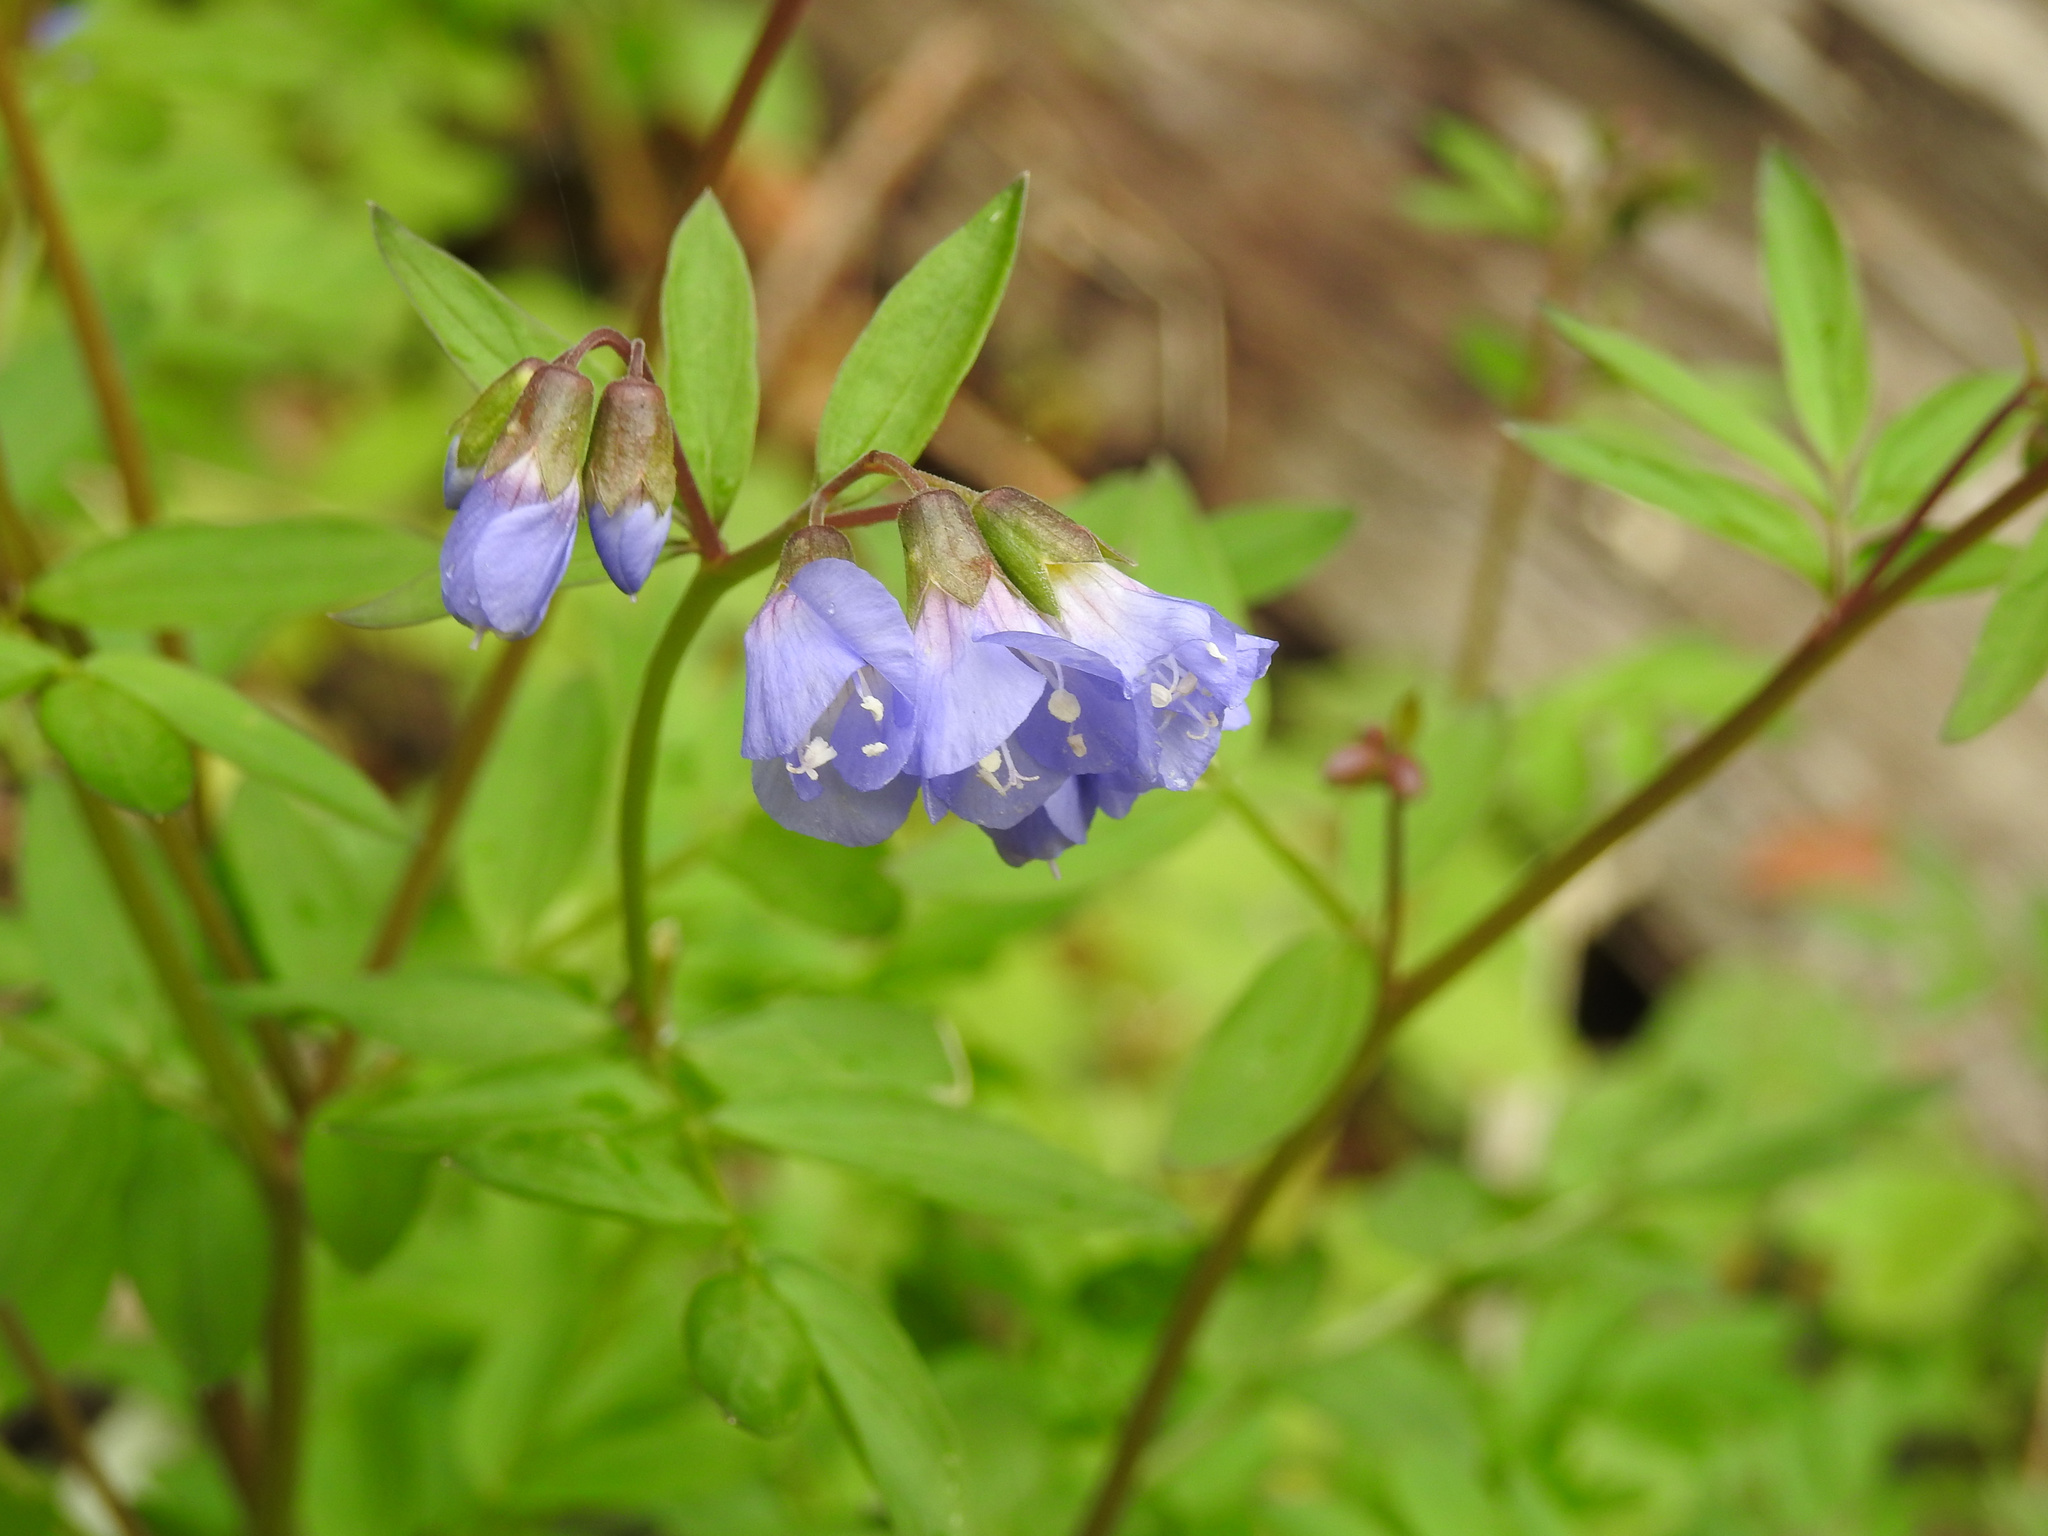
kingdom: Plantae
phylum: Tracheophyta
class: Magnoliopsida
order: Ericales
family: Polemoniaceae
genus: Polemonium
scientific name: Polemonium reptans
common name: Creeping jacob's-ladder
